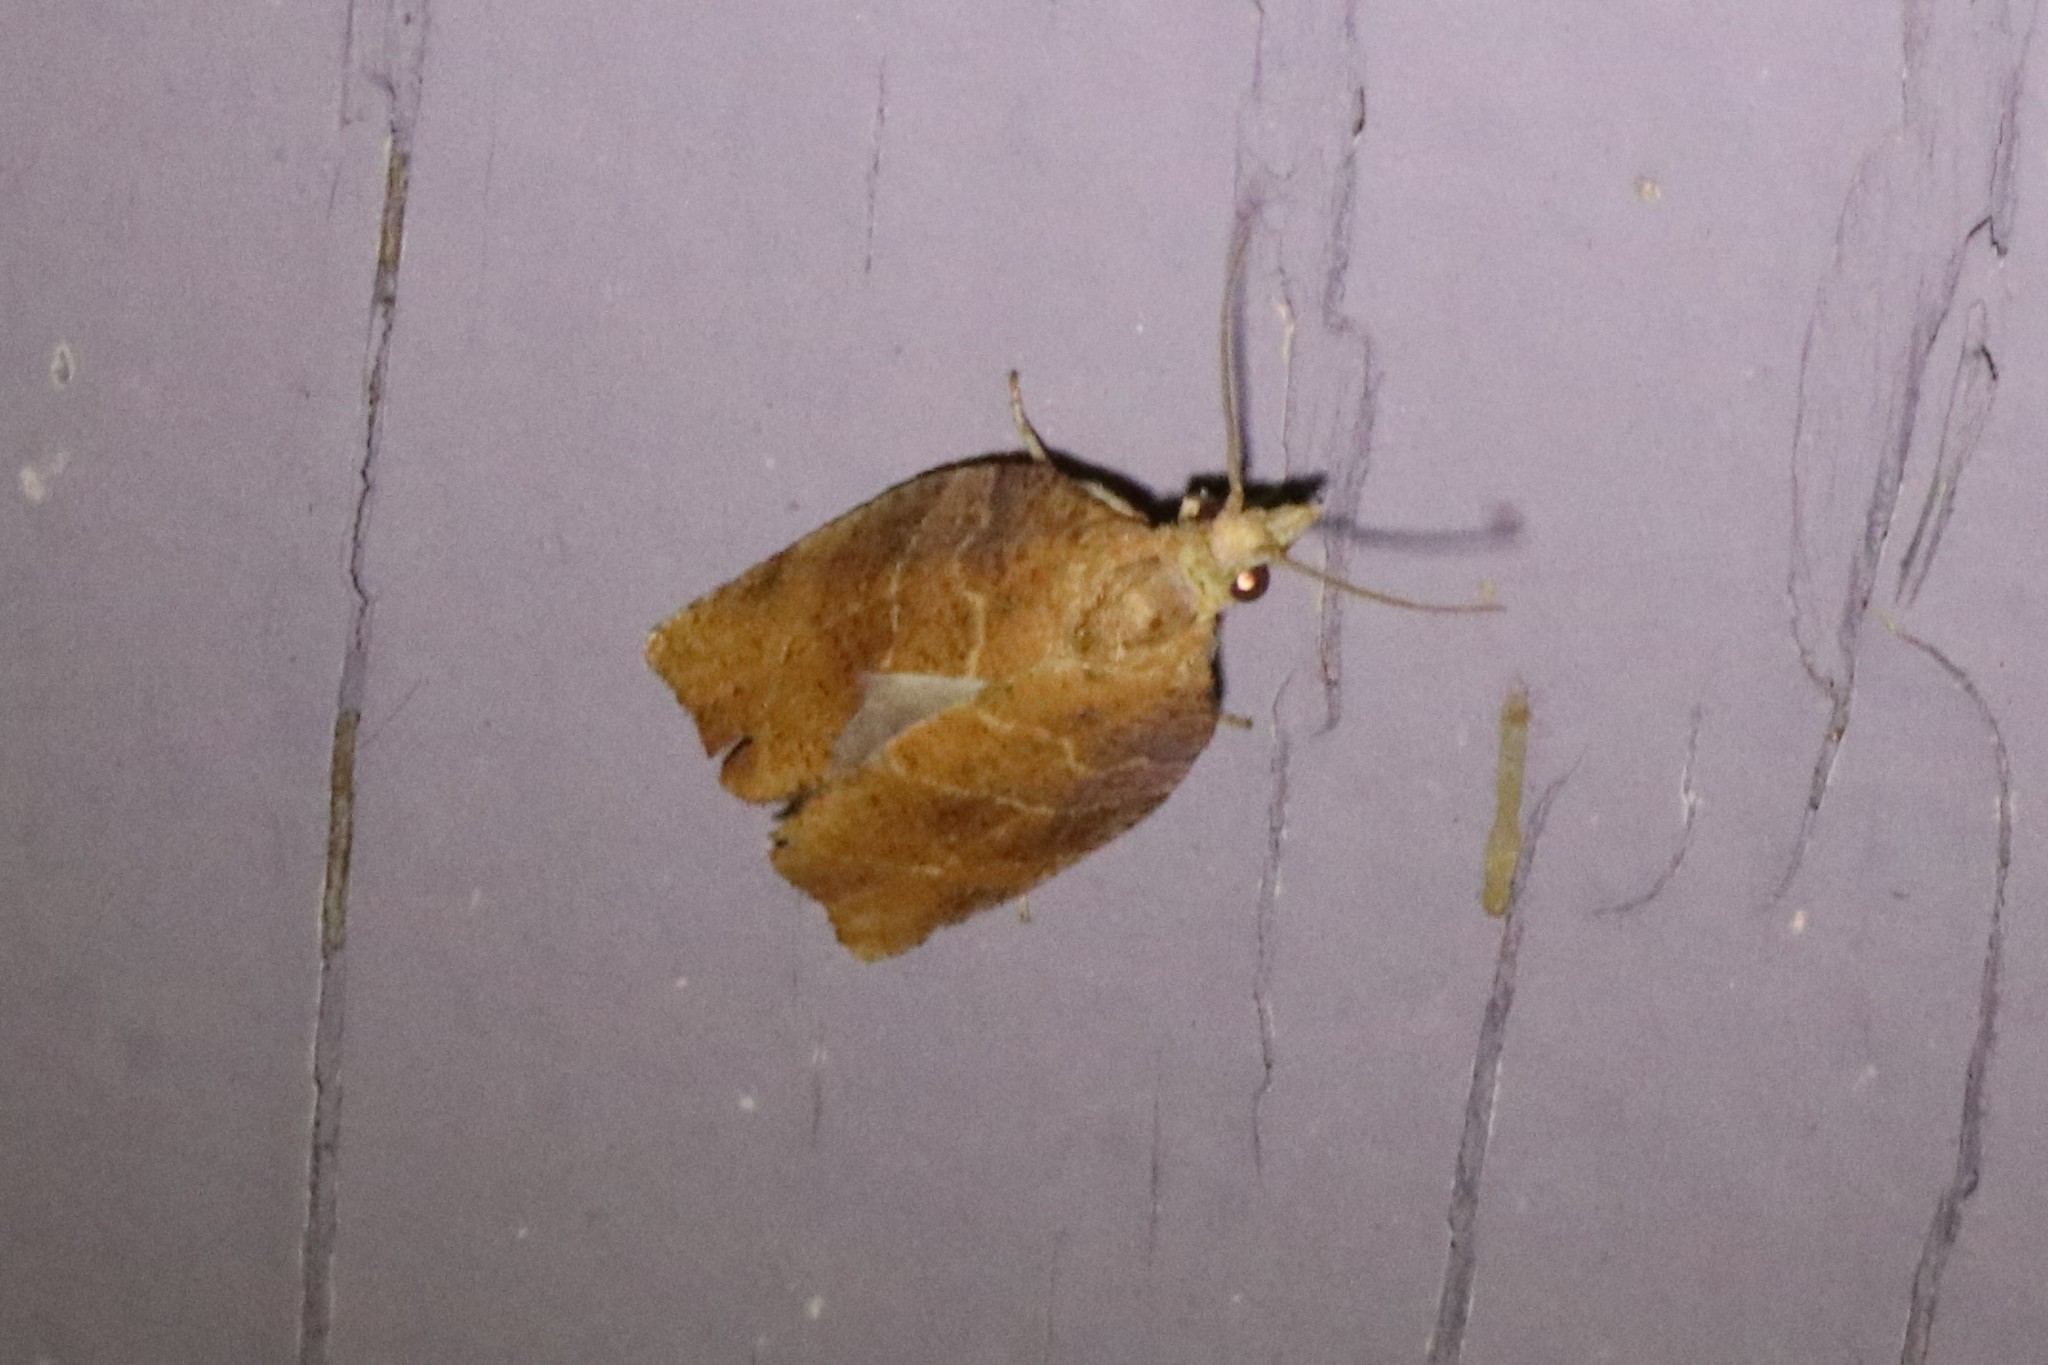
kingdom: Animalia
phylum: Arthropoda
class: Insecta
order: Lepidoptera
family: Tortricidae
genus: Pandemis
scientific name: Pandemis limitata
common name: Three-lined leafroller moth
